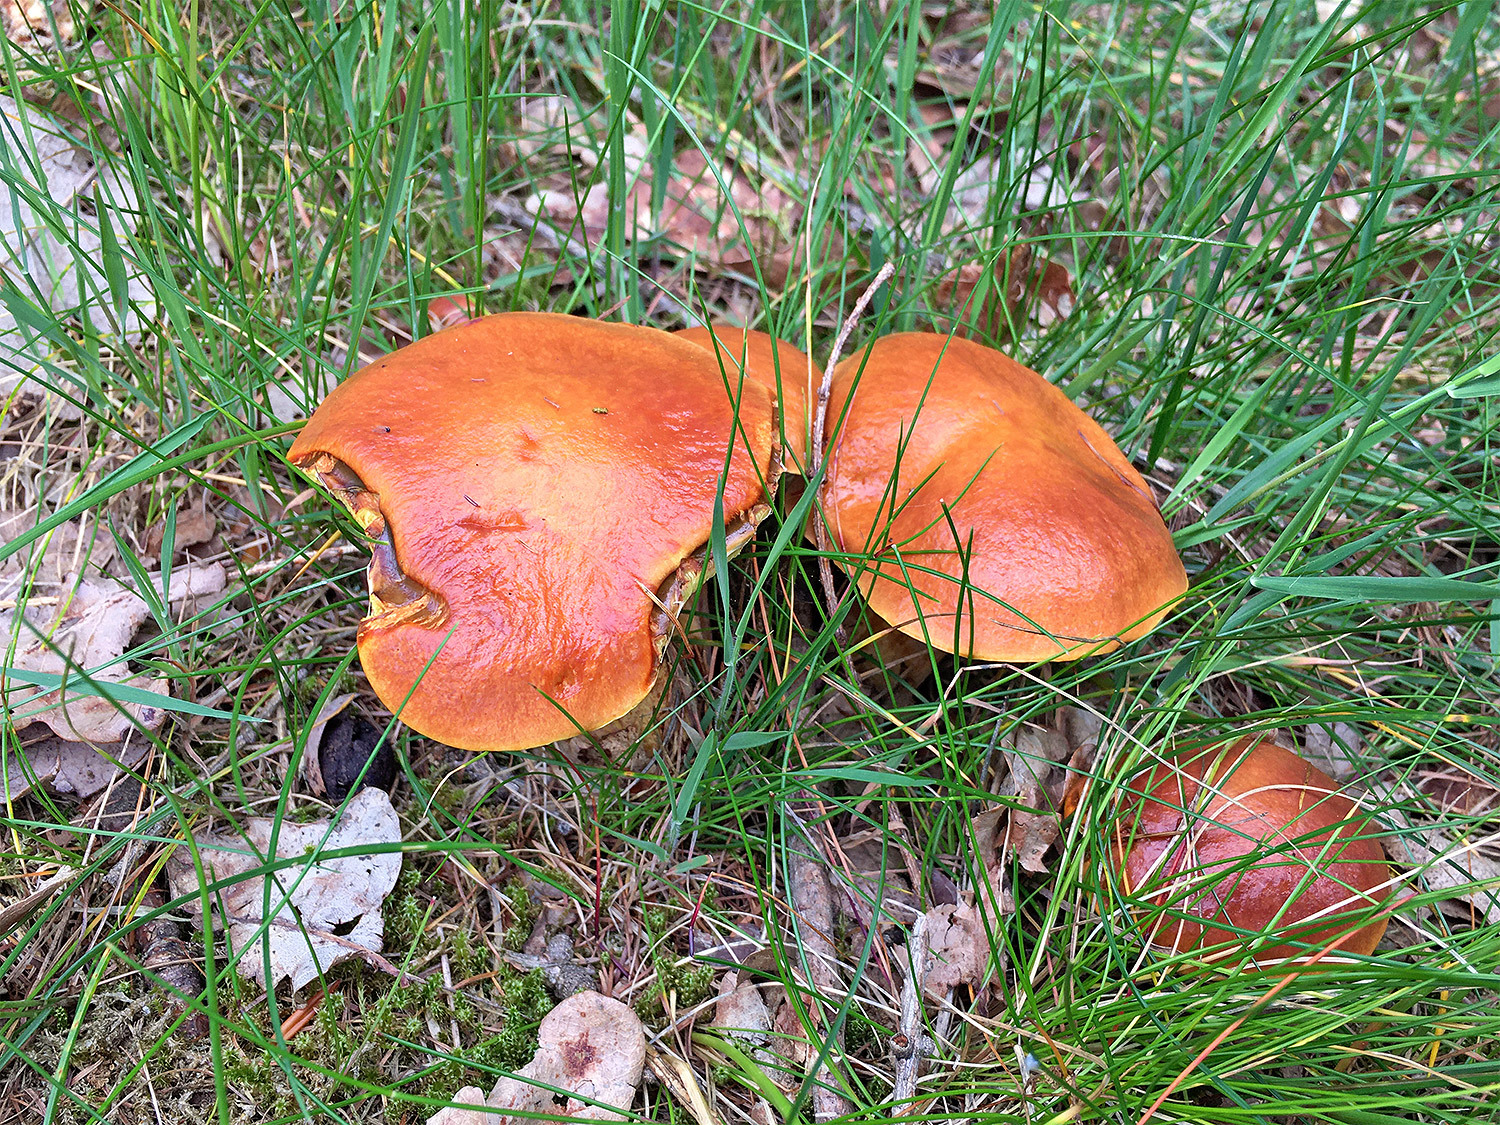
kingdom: Fungi
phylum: Basidiomycota
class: Agaricomycetes
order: Boletales
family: Suillaceae
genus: Suillus
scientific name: Suillus grevillei
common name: Larch bolete
